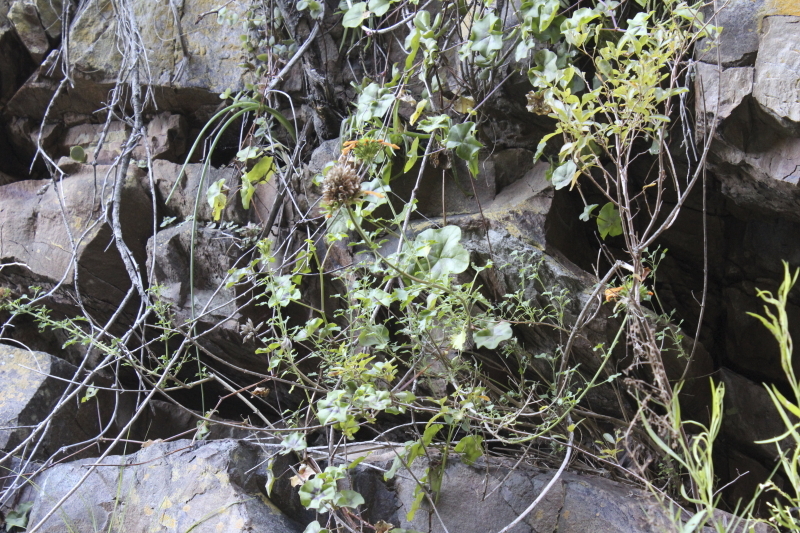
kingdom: Plantae
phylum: Tracheophyta
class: Magnoliopsida
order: Lamiales
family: Lamiaceae
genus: Leonotis
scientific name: Leonotis ocymifolia
